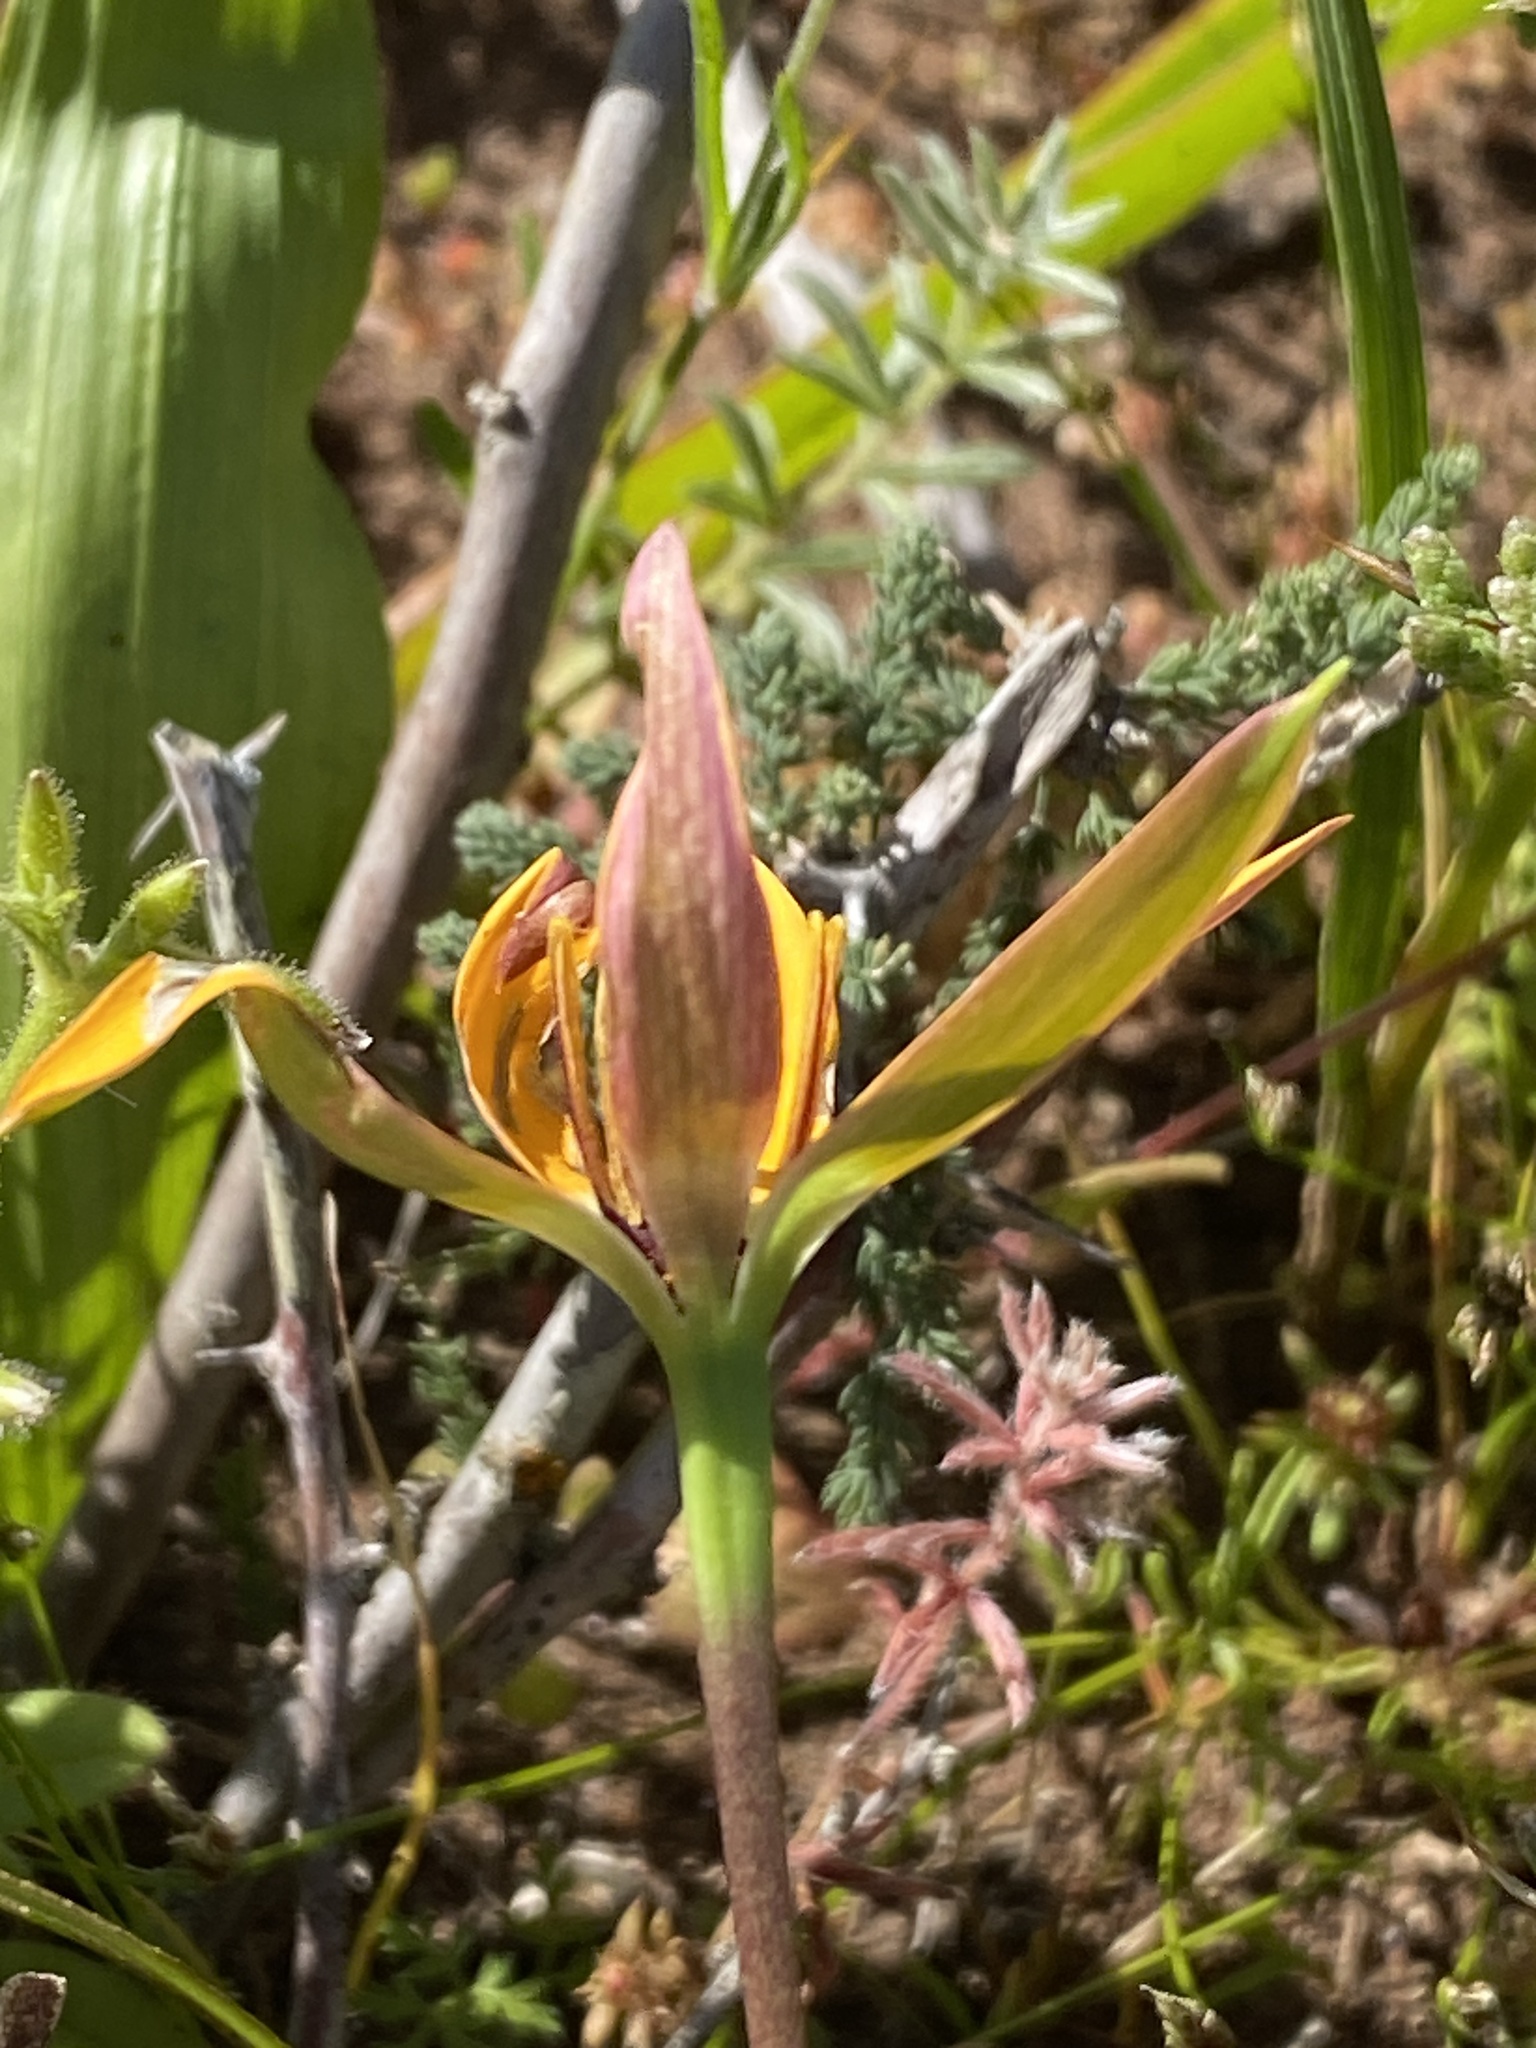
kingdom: Plantae
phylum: Tracheophyta
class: Liliopsida
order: Asparagales
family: Hypoxidaceae
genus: Pauridia
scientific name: Pauridia linearis
